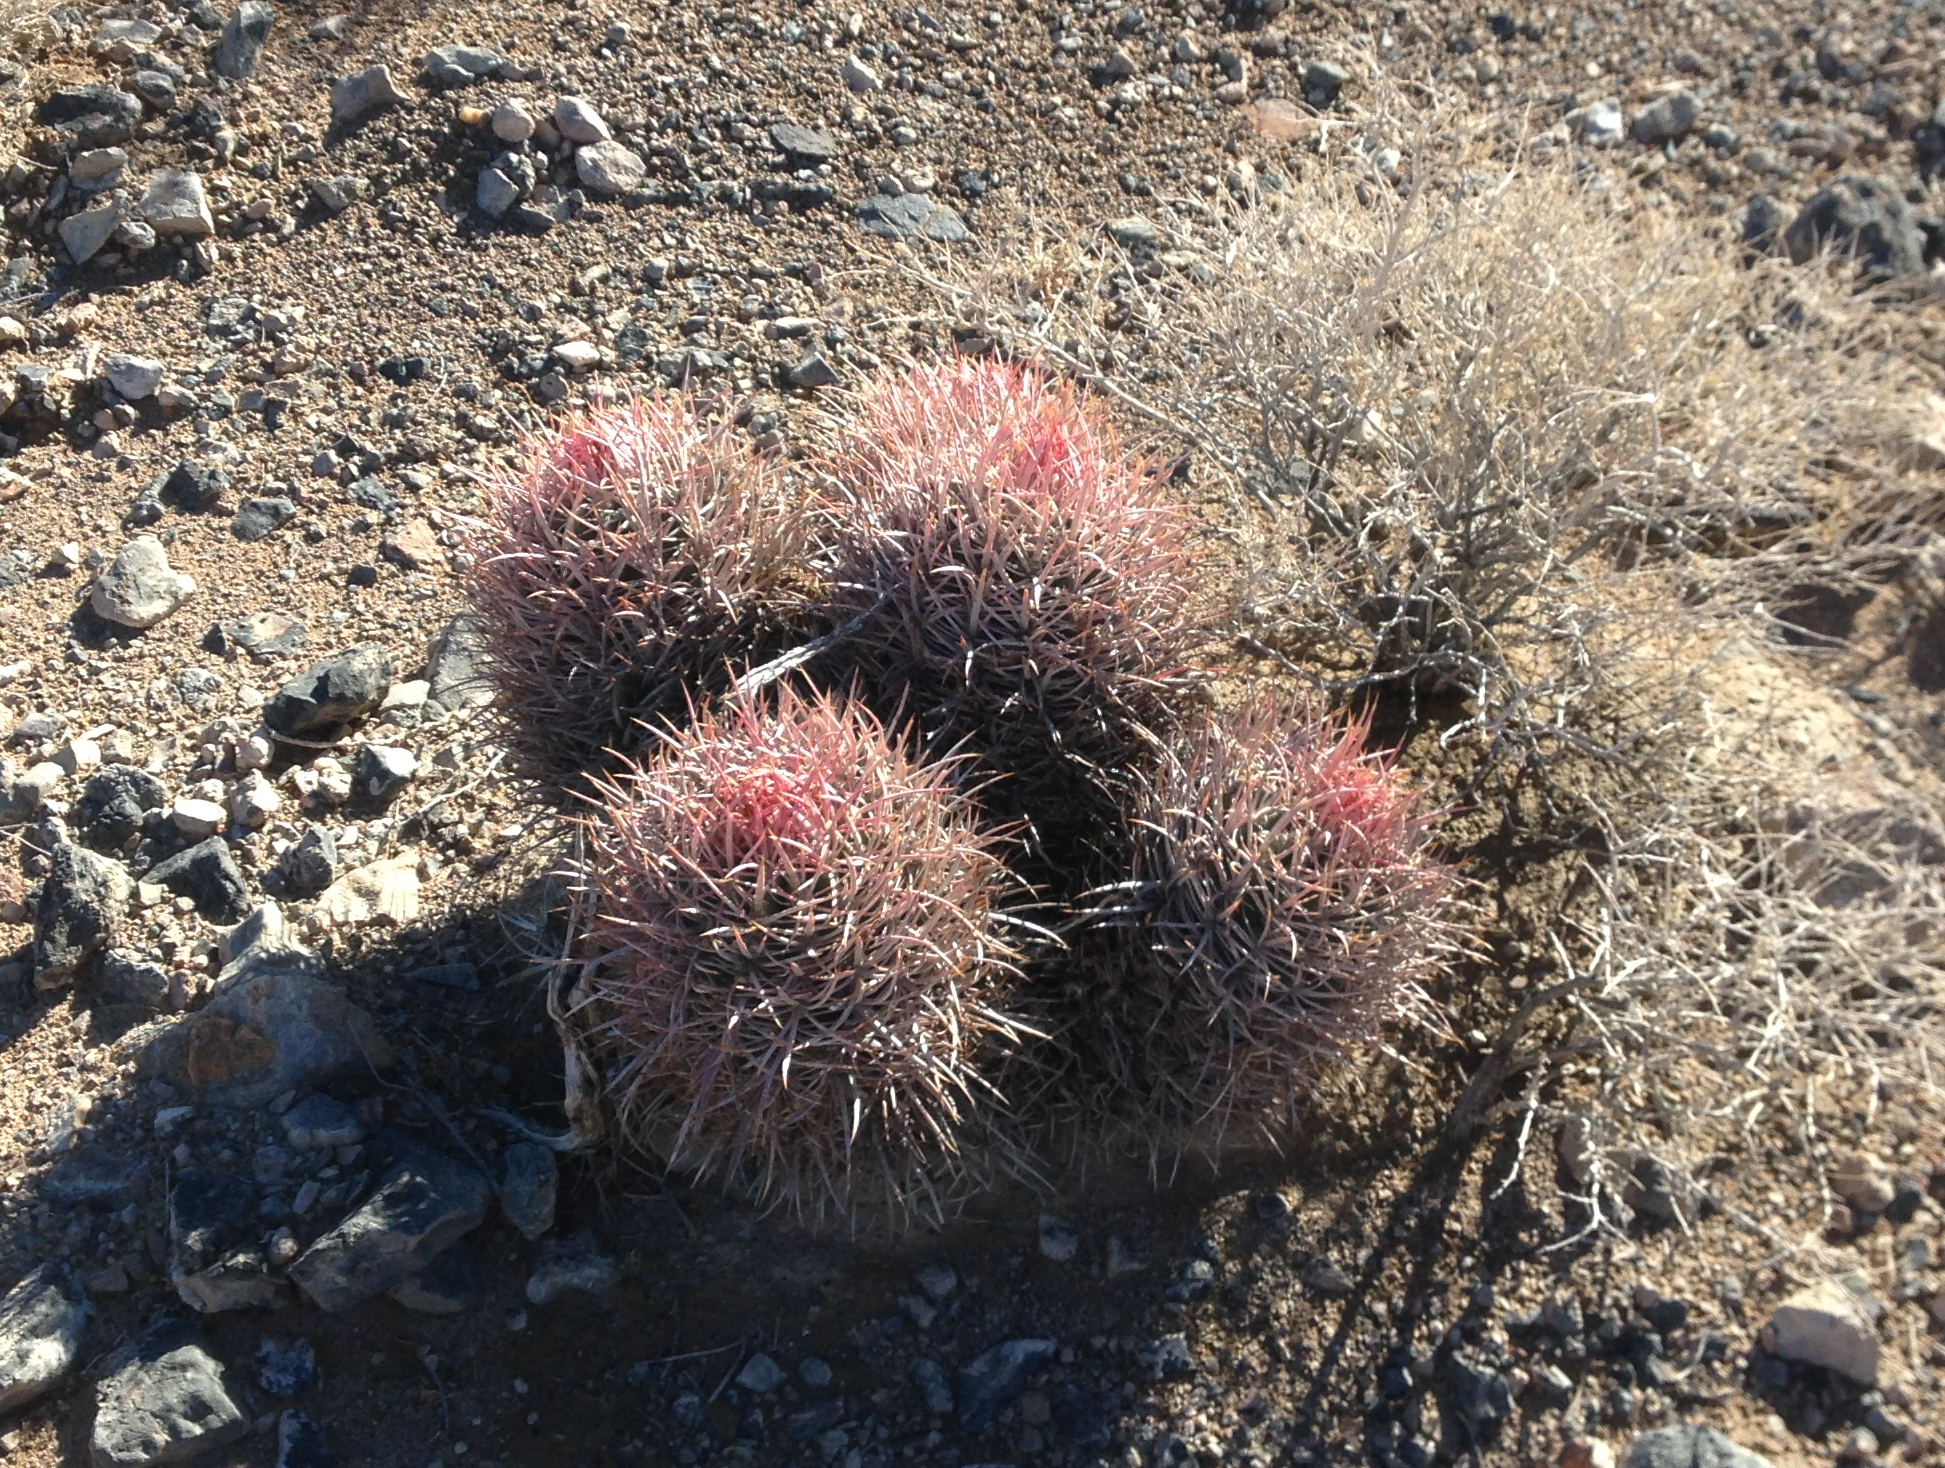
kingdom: Plantae
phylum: Tracheophyta
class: Magnoliopsida
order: Caryophyllales
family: Cactaceae
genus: Echinocactus
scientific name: Echinocactus polycephalus
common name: Cottontop cactus
